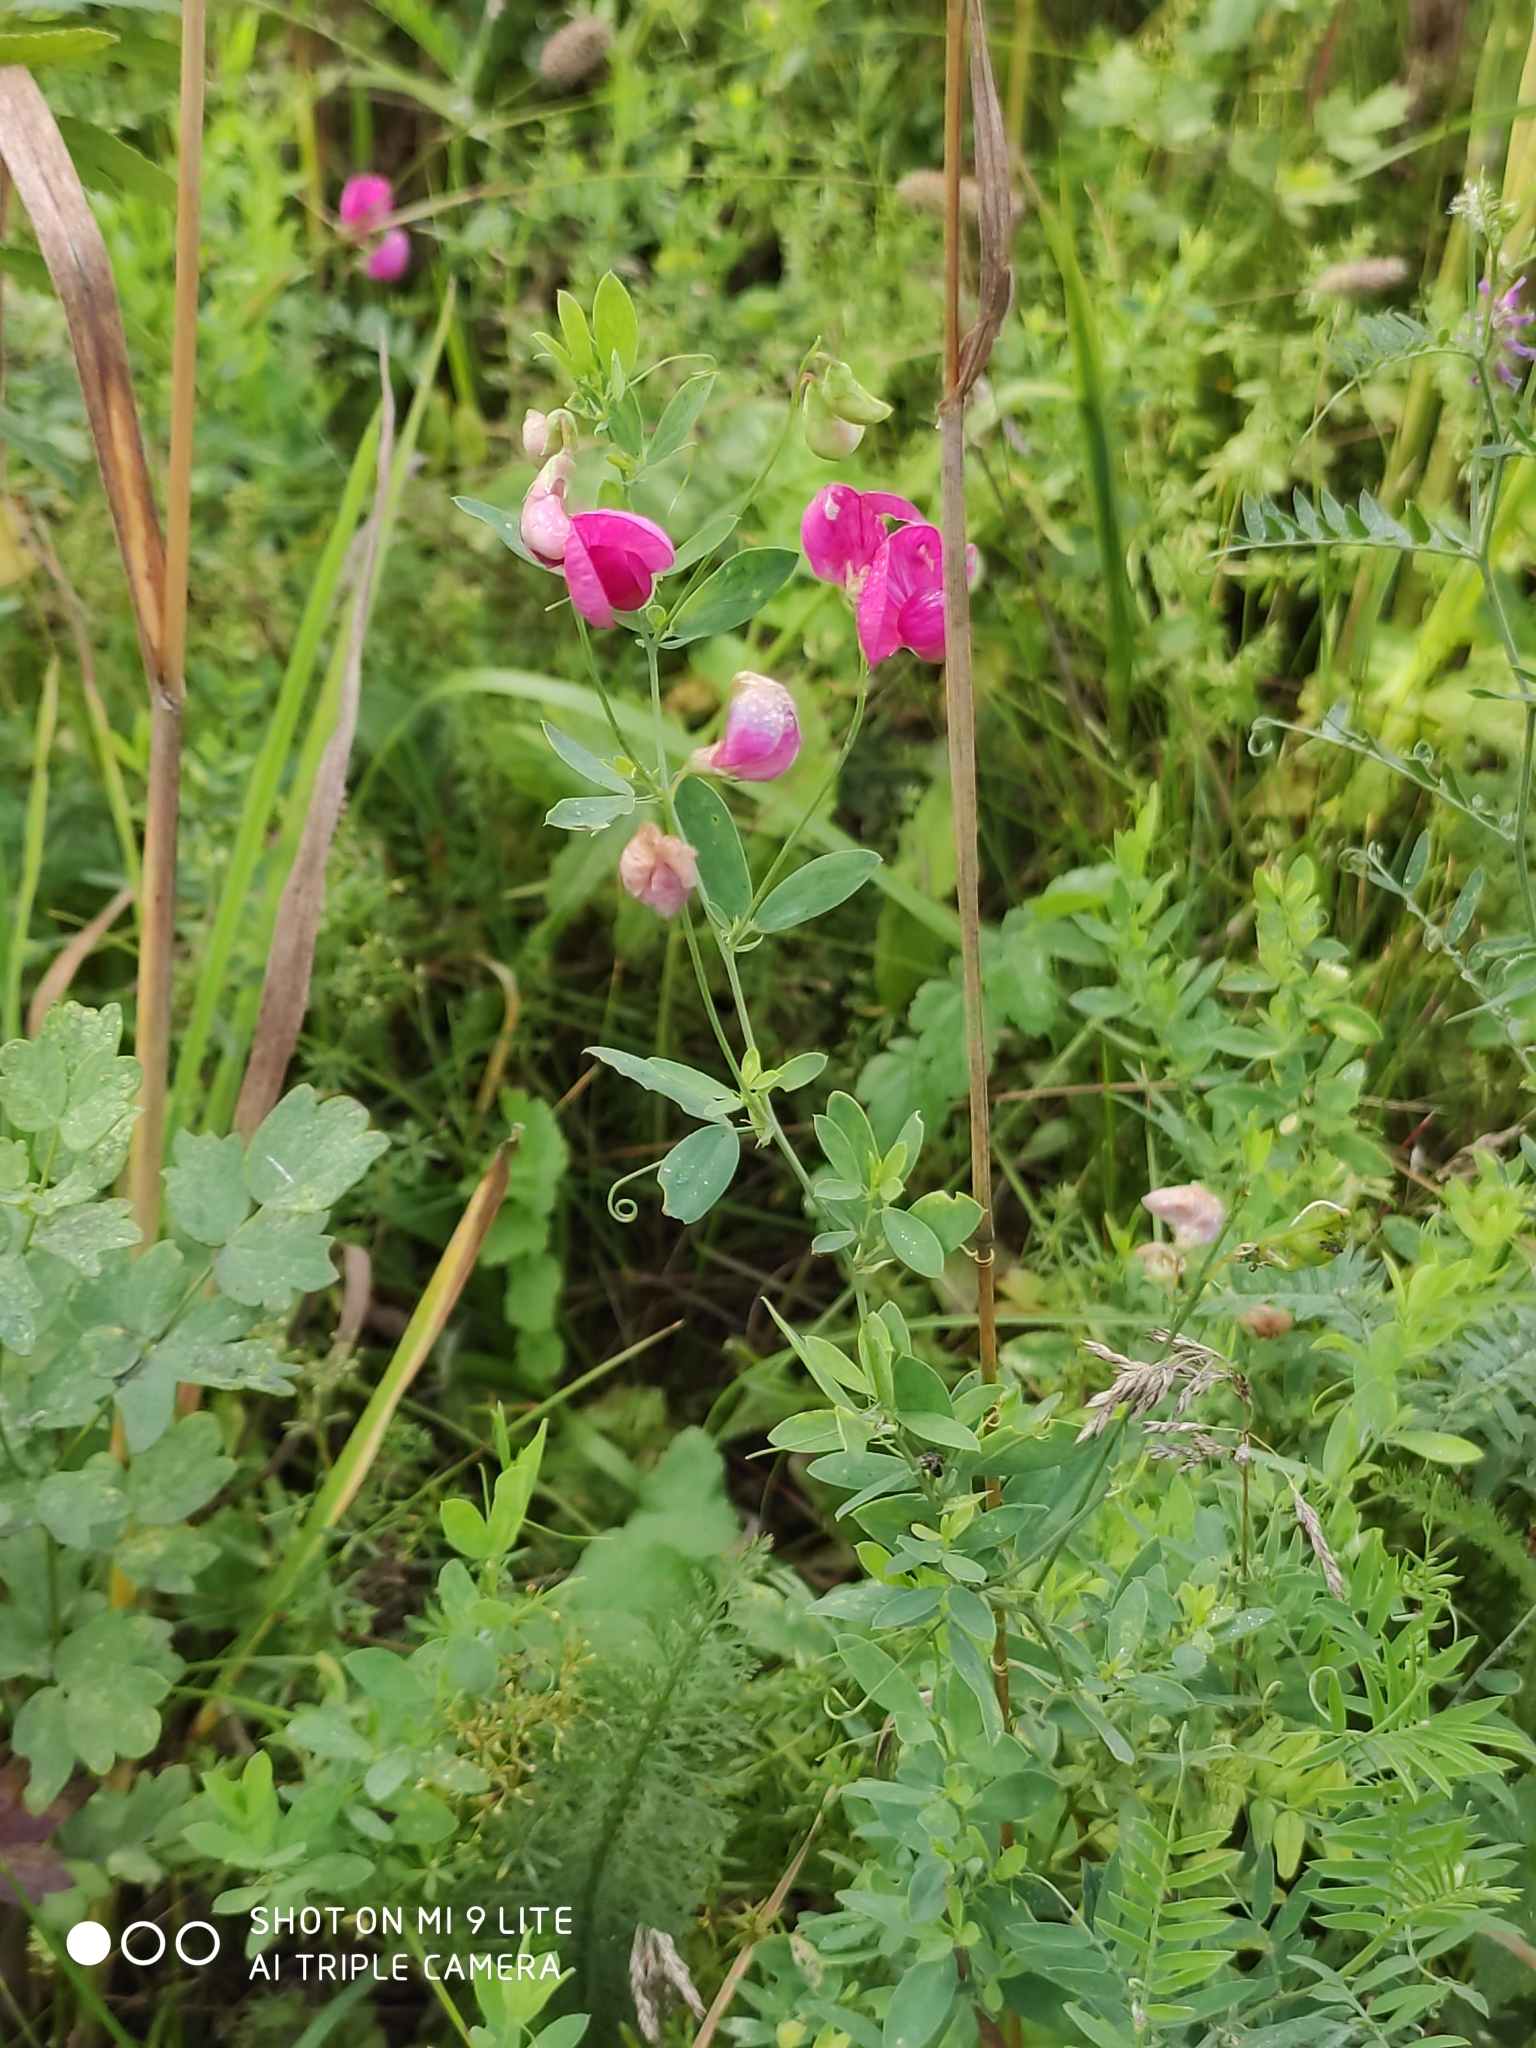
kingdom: Plantae
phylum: Tracheophyta
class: Magnoliopsida
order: Fabales
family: Fabaceae
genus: Lathyrus
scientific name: Lathyrus tuberosus
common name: Tuberous pea
